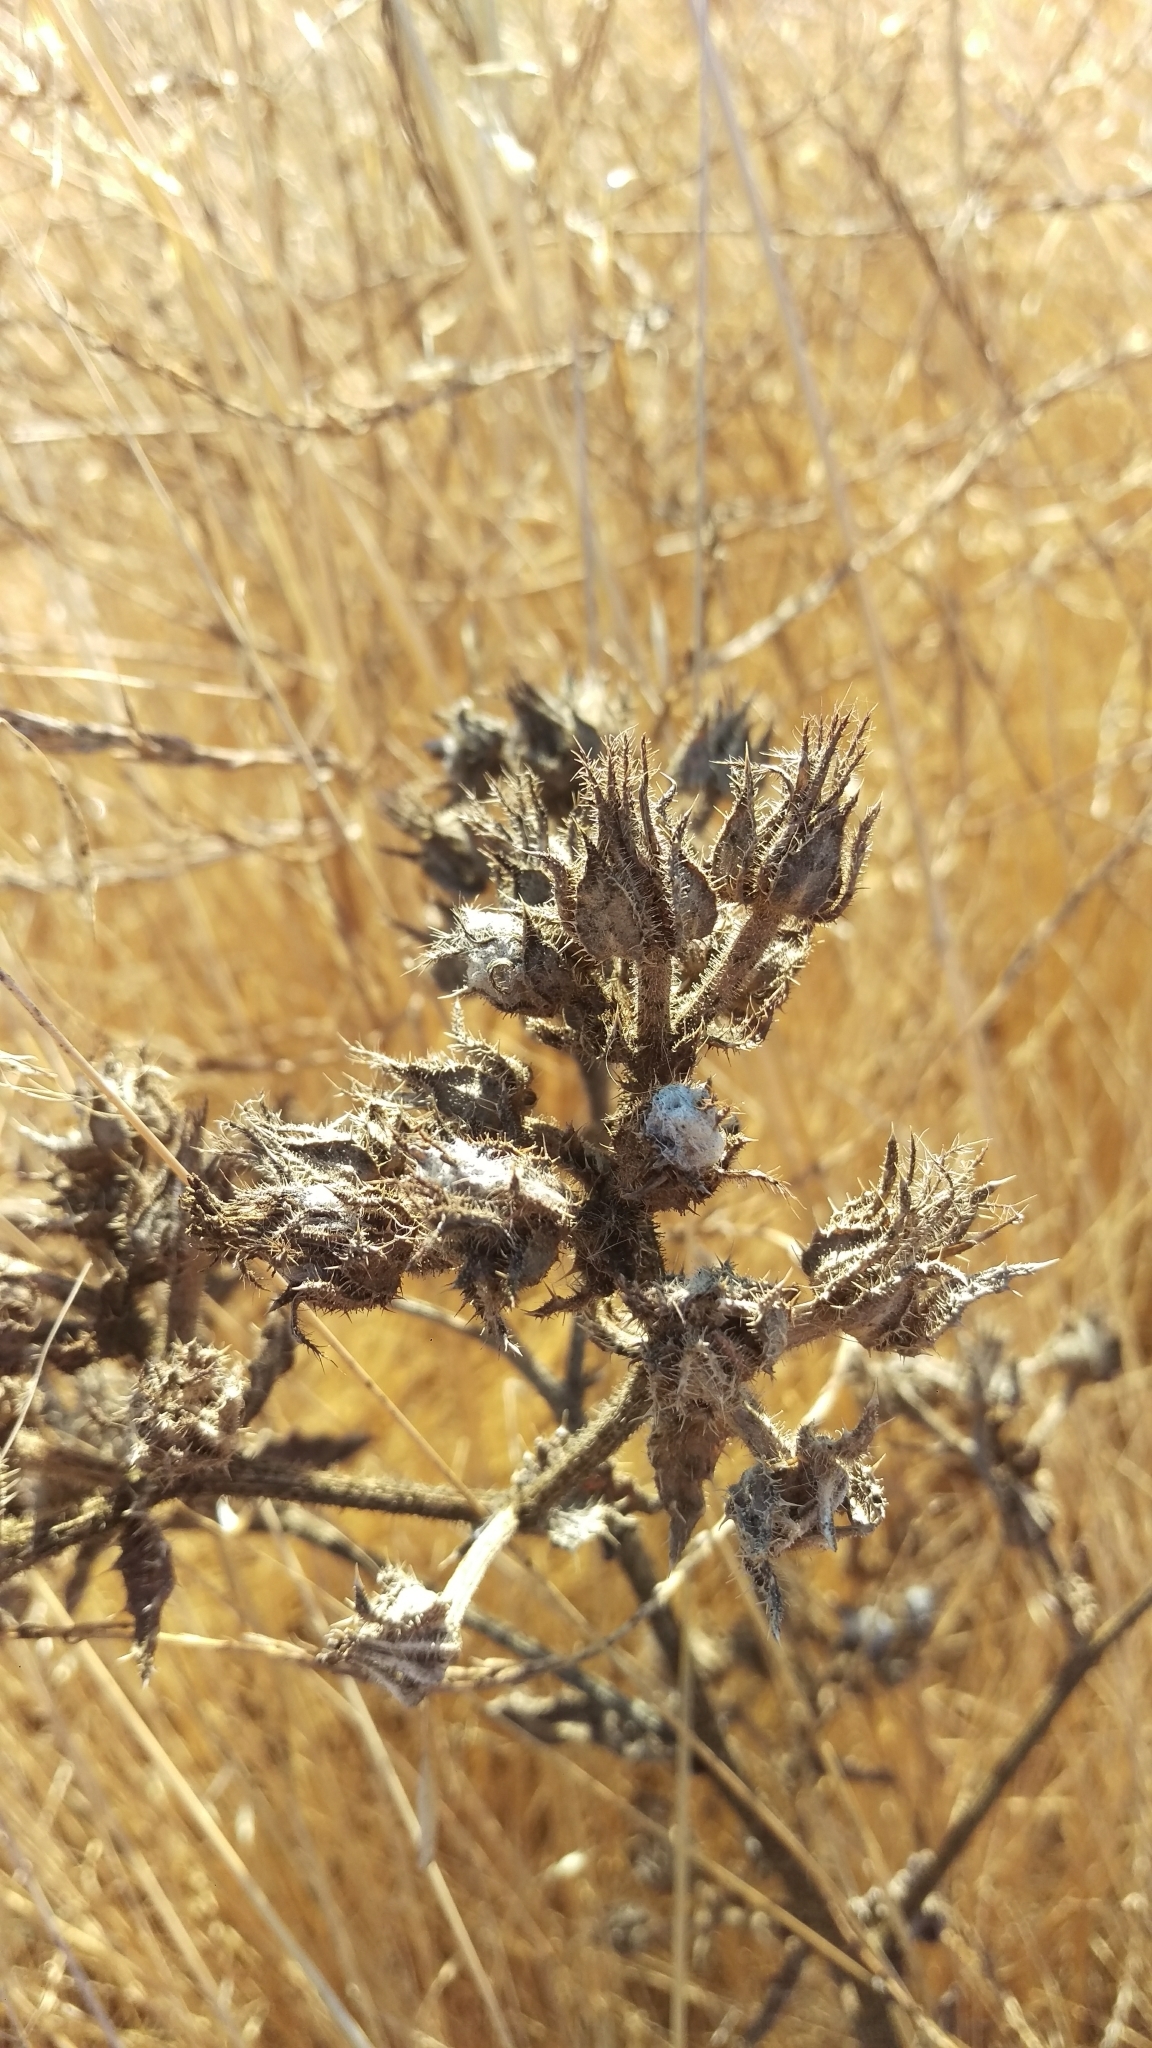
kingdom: Plantae
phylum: Tracheophyta
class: Magnoliopsida
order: Asterales
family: Asteraceae
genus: Helminthotheca
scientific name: Helminthotheca echioides
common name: Ox-tongue
